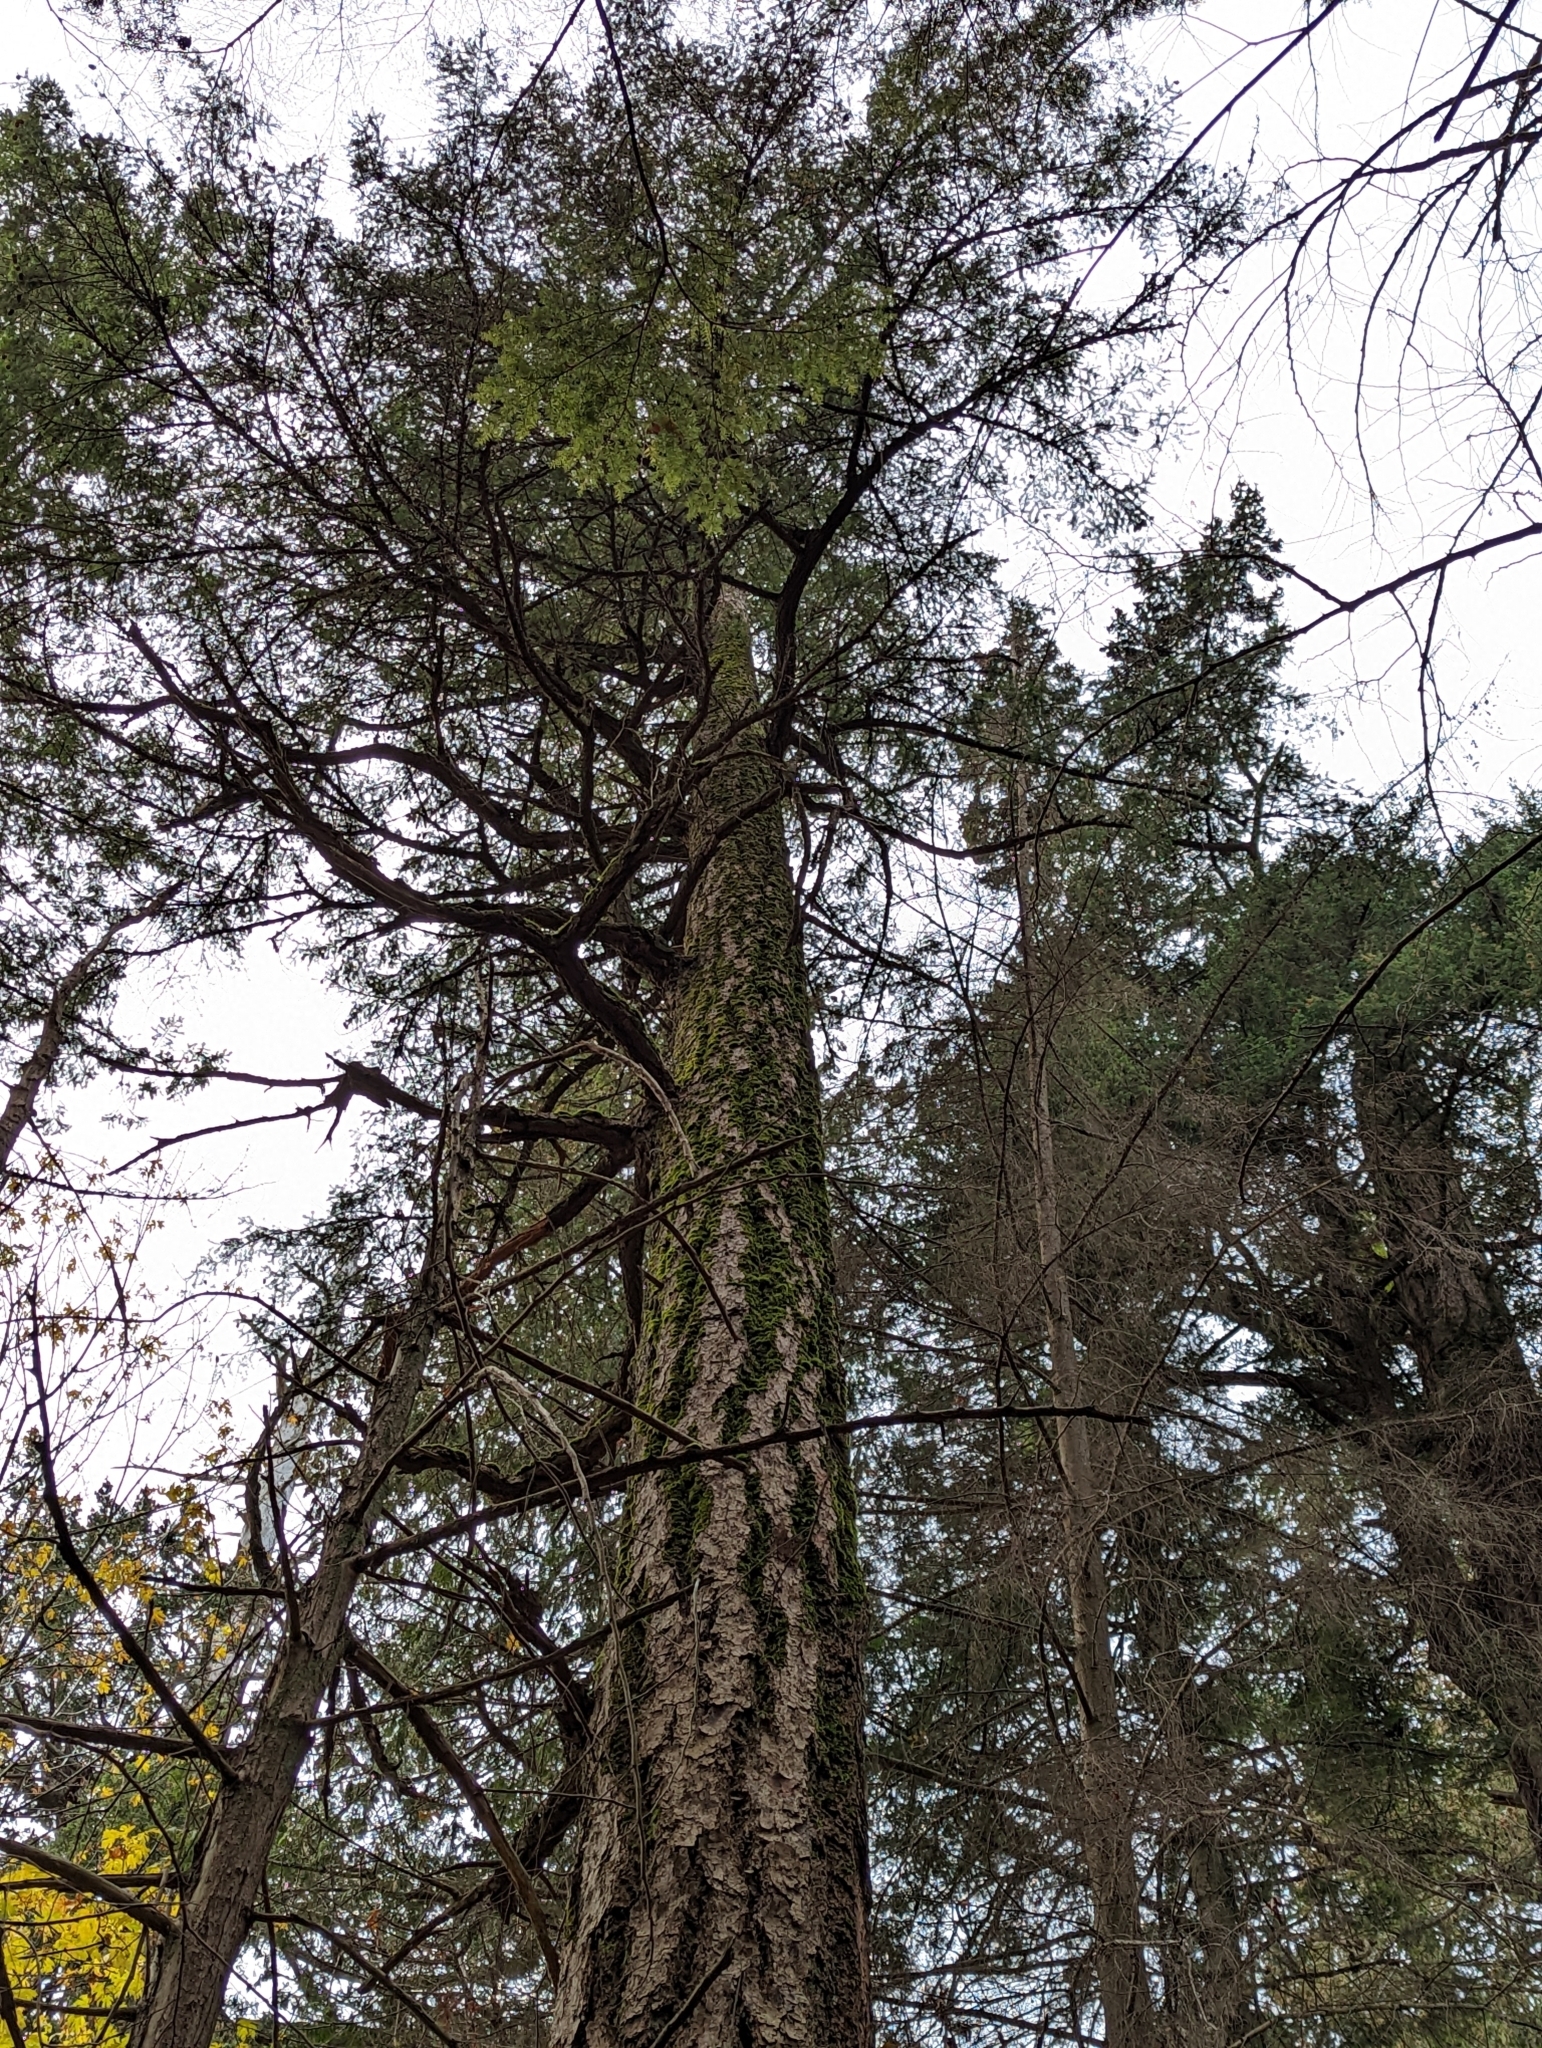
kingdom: Plantae
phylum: Tracheophyta
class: Pinopsida
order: Pinales
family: Pinaceae
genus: Pseudotsuga
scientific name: Pseudotsuga menziesii
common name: Douglas fir
